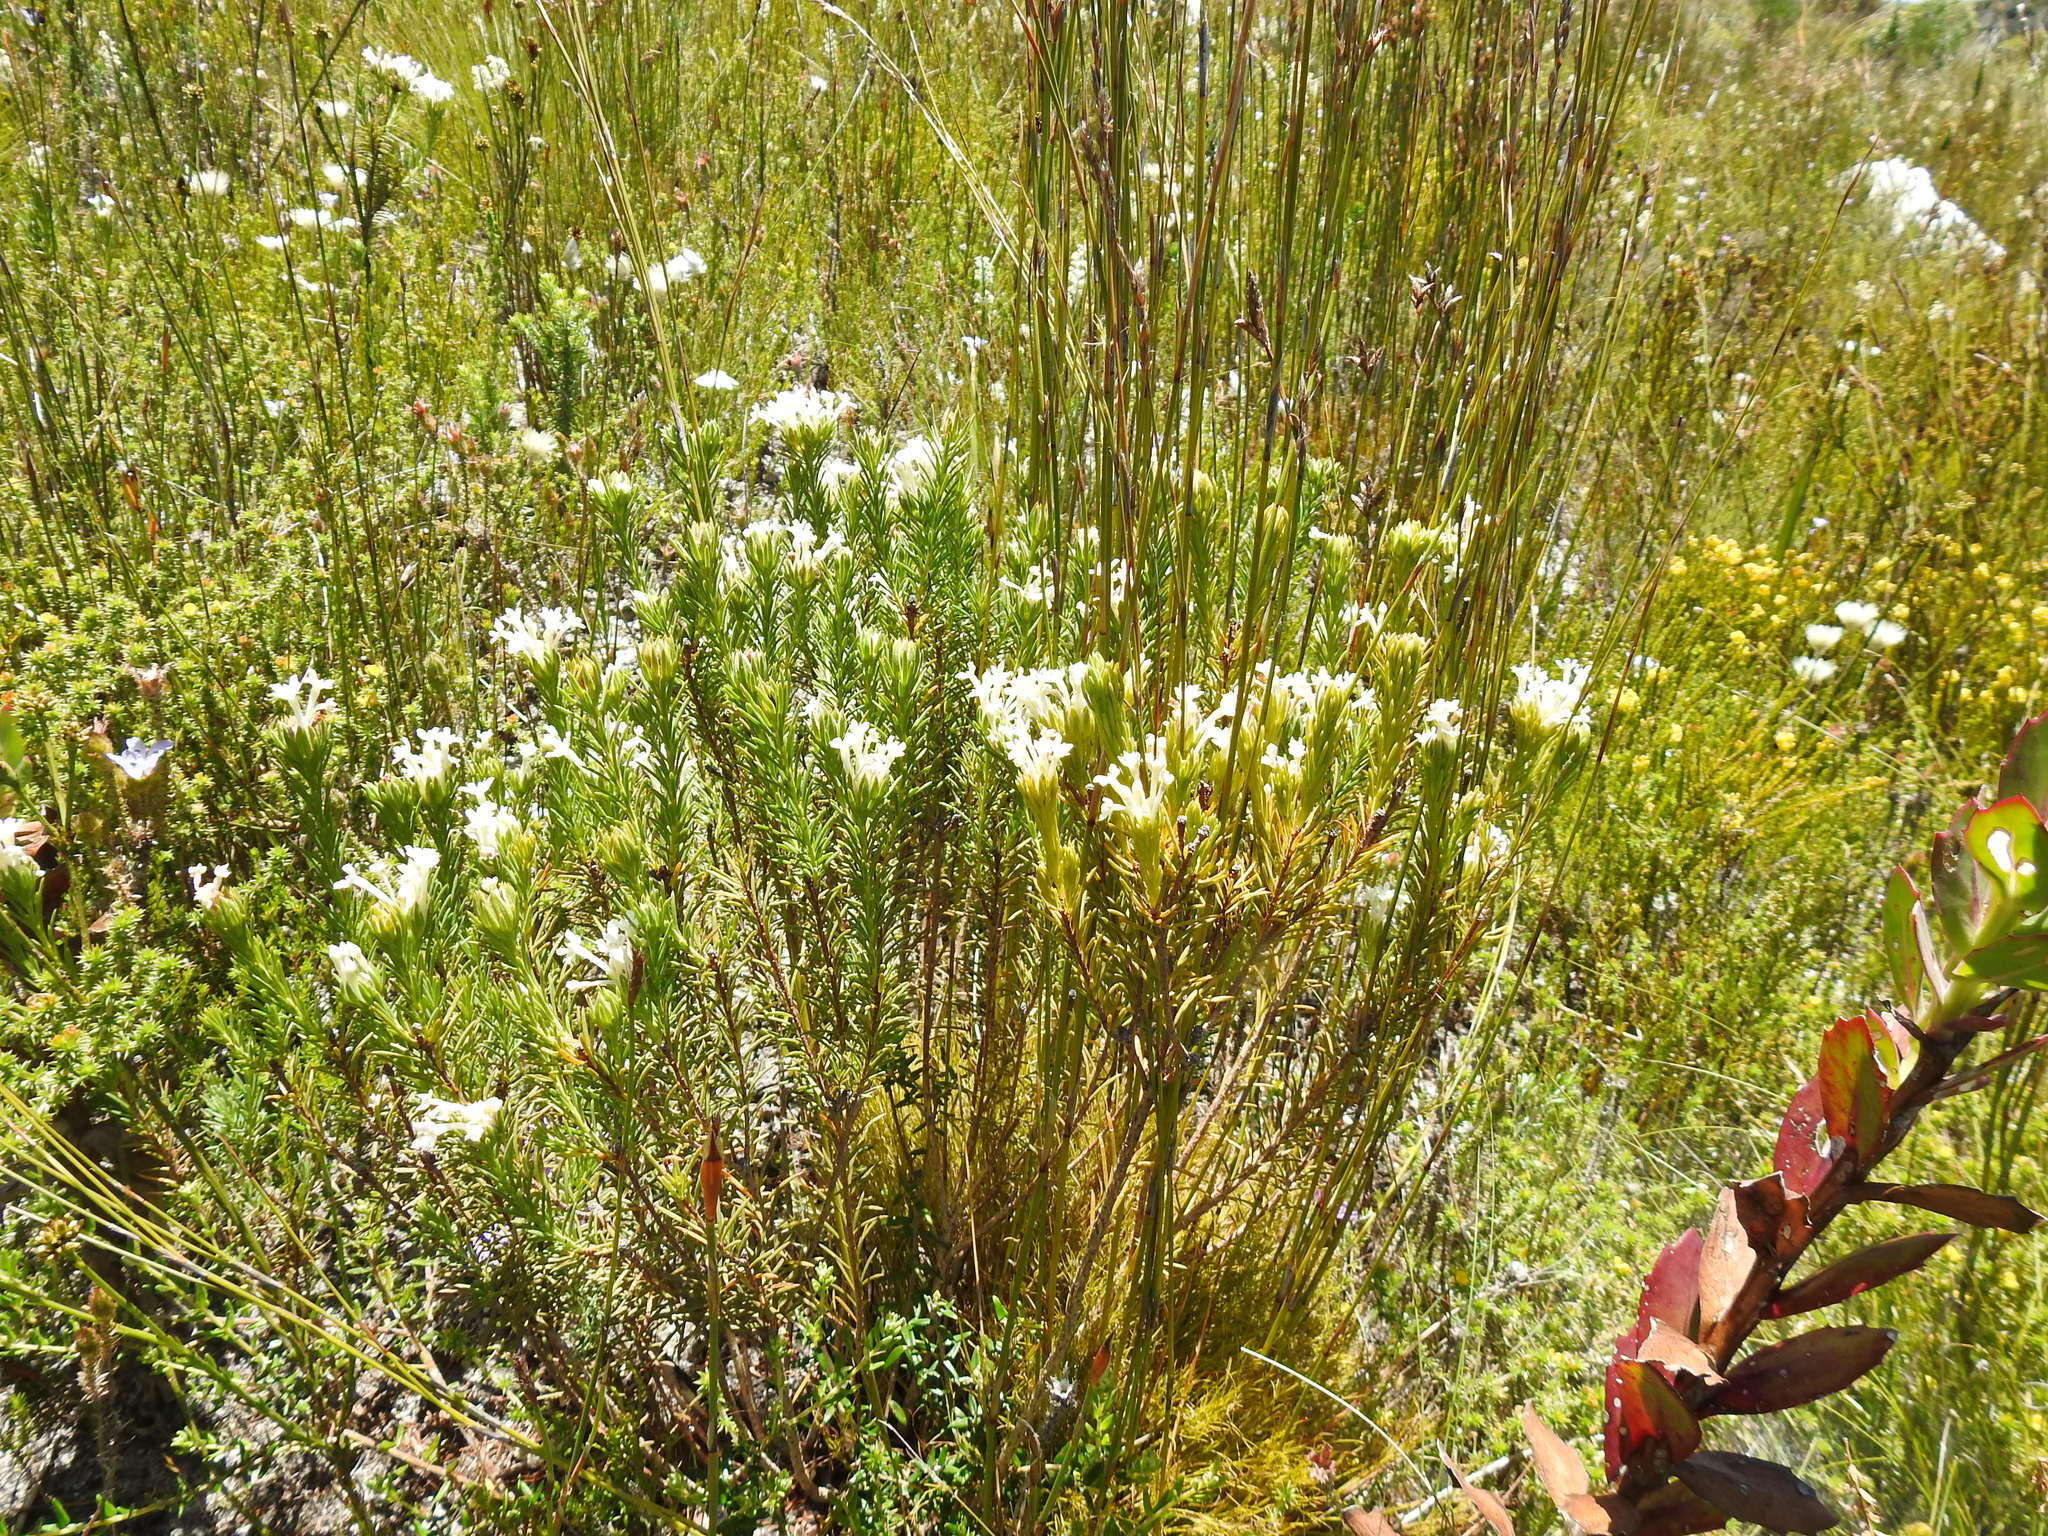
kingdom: Plantae
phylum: Tracheophyta
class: Magnoliopsida
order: Malvales
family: Thymelaeaceae
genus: Gnidia
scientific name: Gnidia pinifolia
